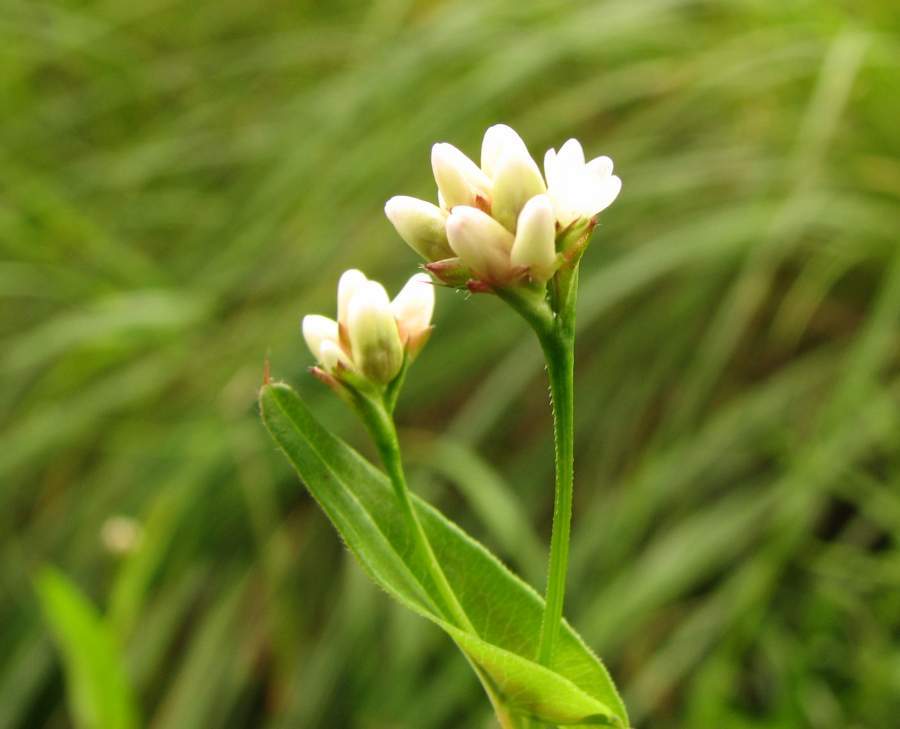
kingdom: Plantae
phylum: Tracheophyta
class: Magnoliopsida
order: Caryophyllales
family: Polygonaceae
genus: Persicaria
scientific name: Persicaria sagittata
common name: American tearthumb
